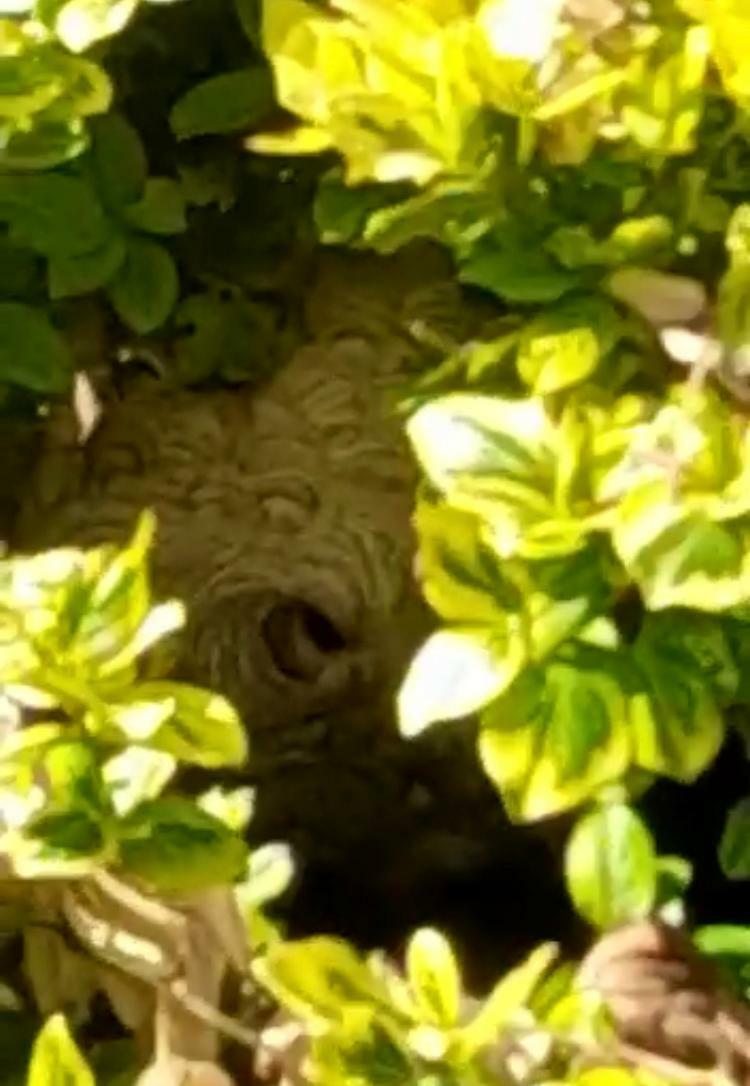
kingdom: Animalia
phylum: Arthropoda
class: Insecta
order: Hymenoptera
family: Vespidae
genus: Vespa
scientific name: Vespa velutina
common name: Asian hornet
